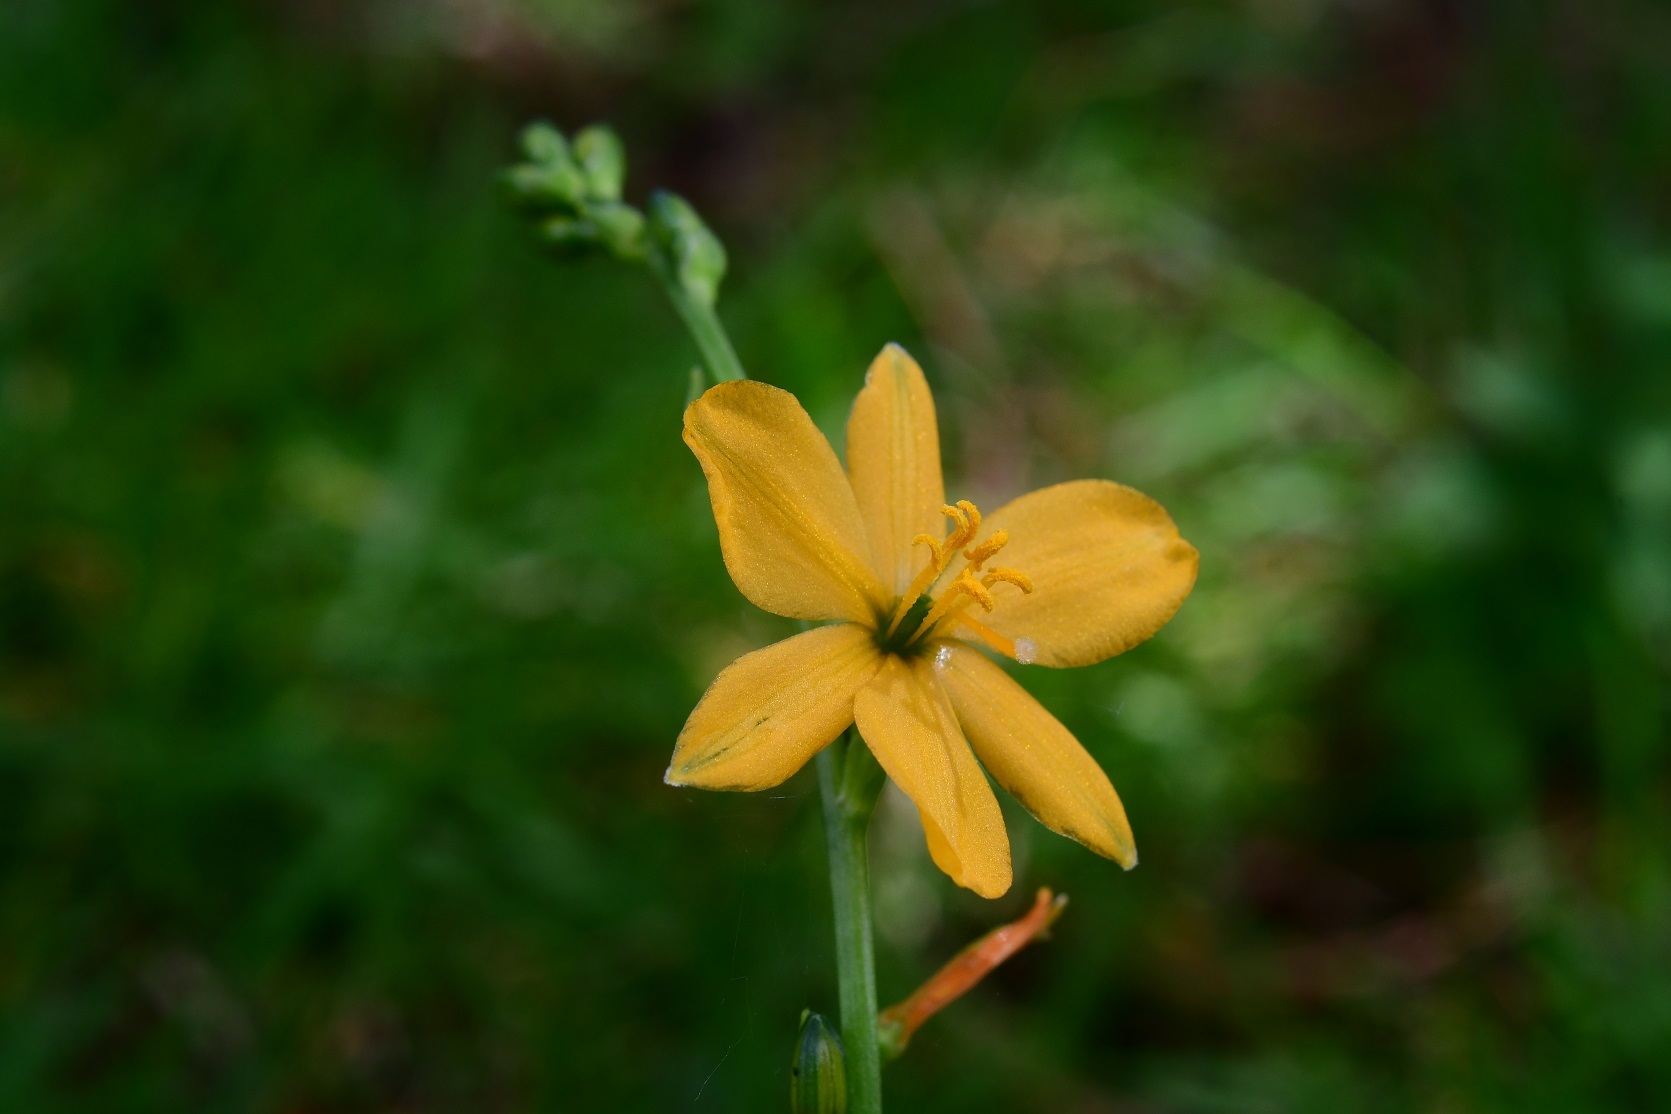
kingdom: Plantae
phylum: Tracheophyta
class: Liliopsida
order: Asparagales
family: Asparagaceae
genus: Echeandia
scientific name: Echeandia skinneri
